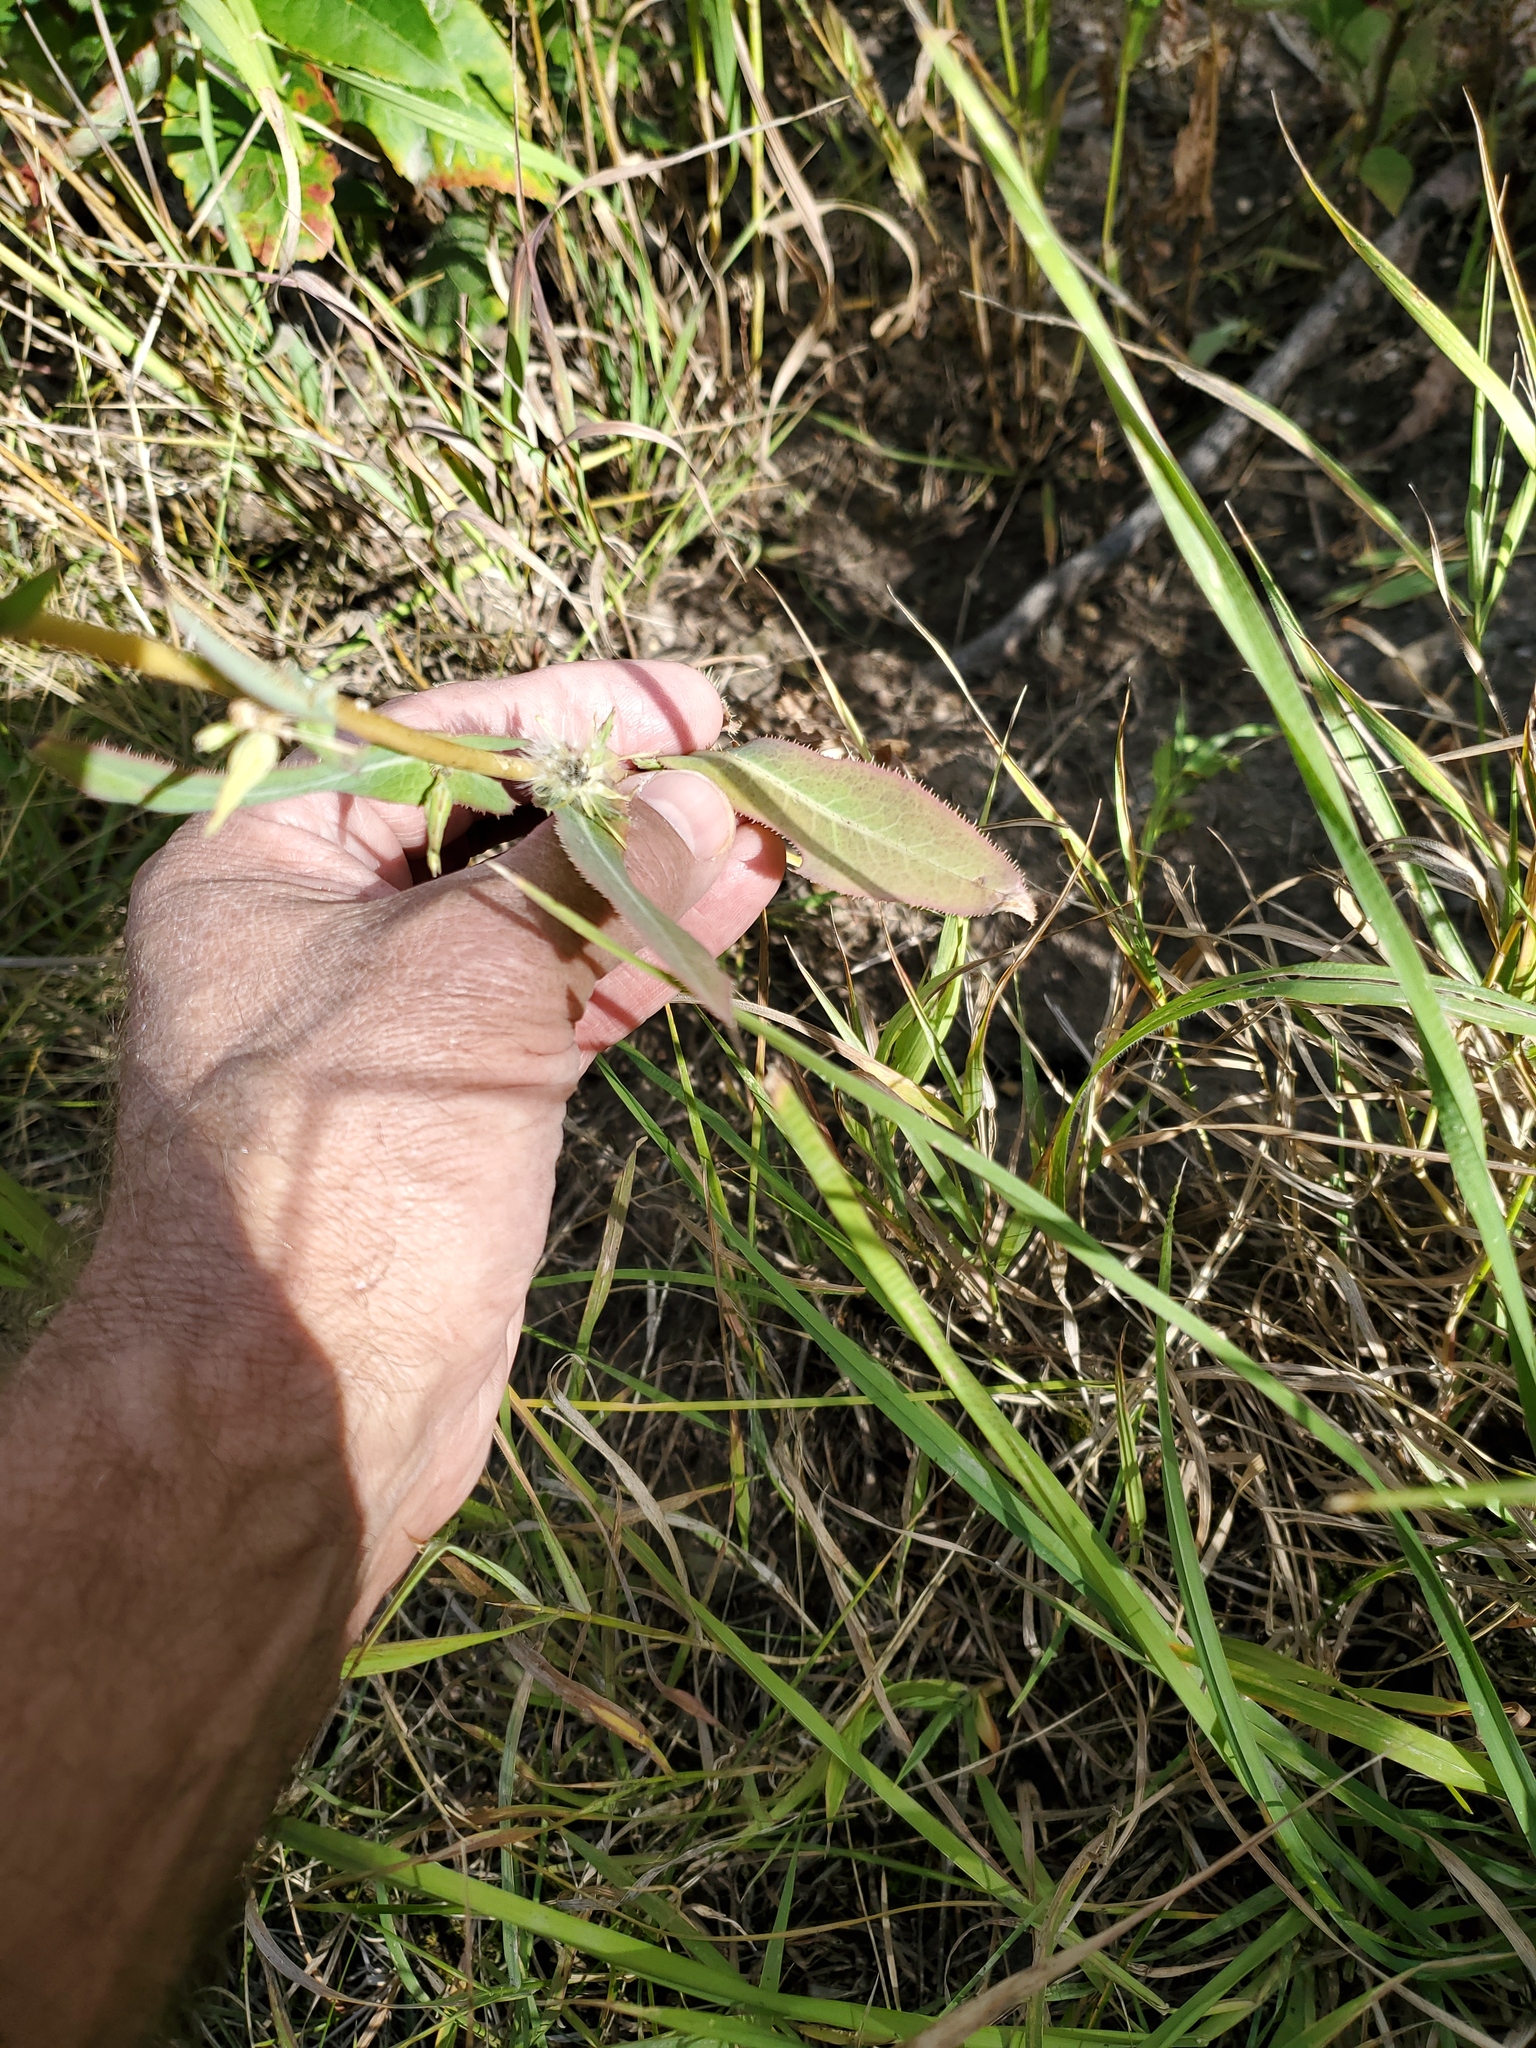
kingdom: Plantae
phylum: Tracheophyta
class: Magnoliopsida
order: Asterales
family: Asteraceae
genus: Lactuca
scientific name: Lactuca serriola
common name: Prickly lettuce
